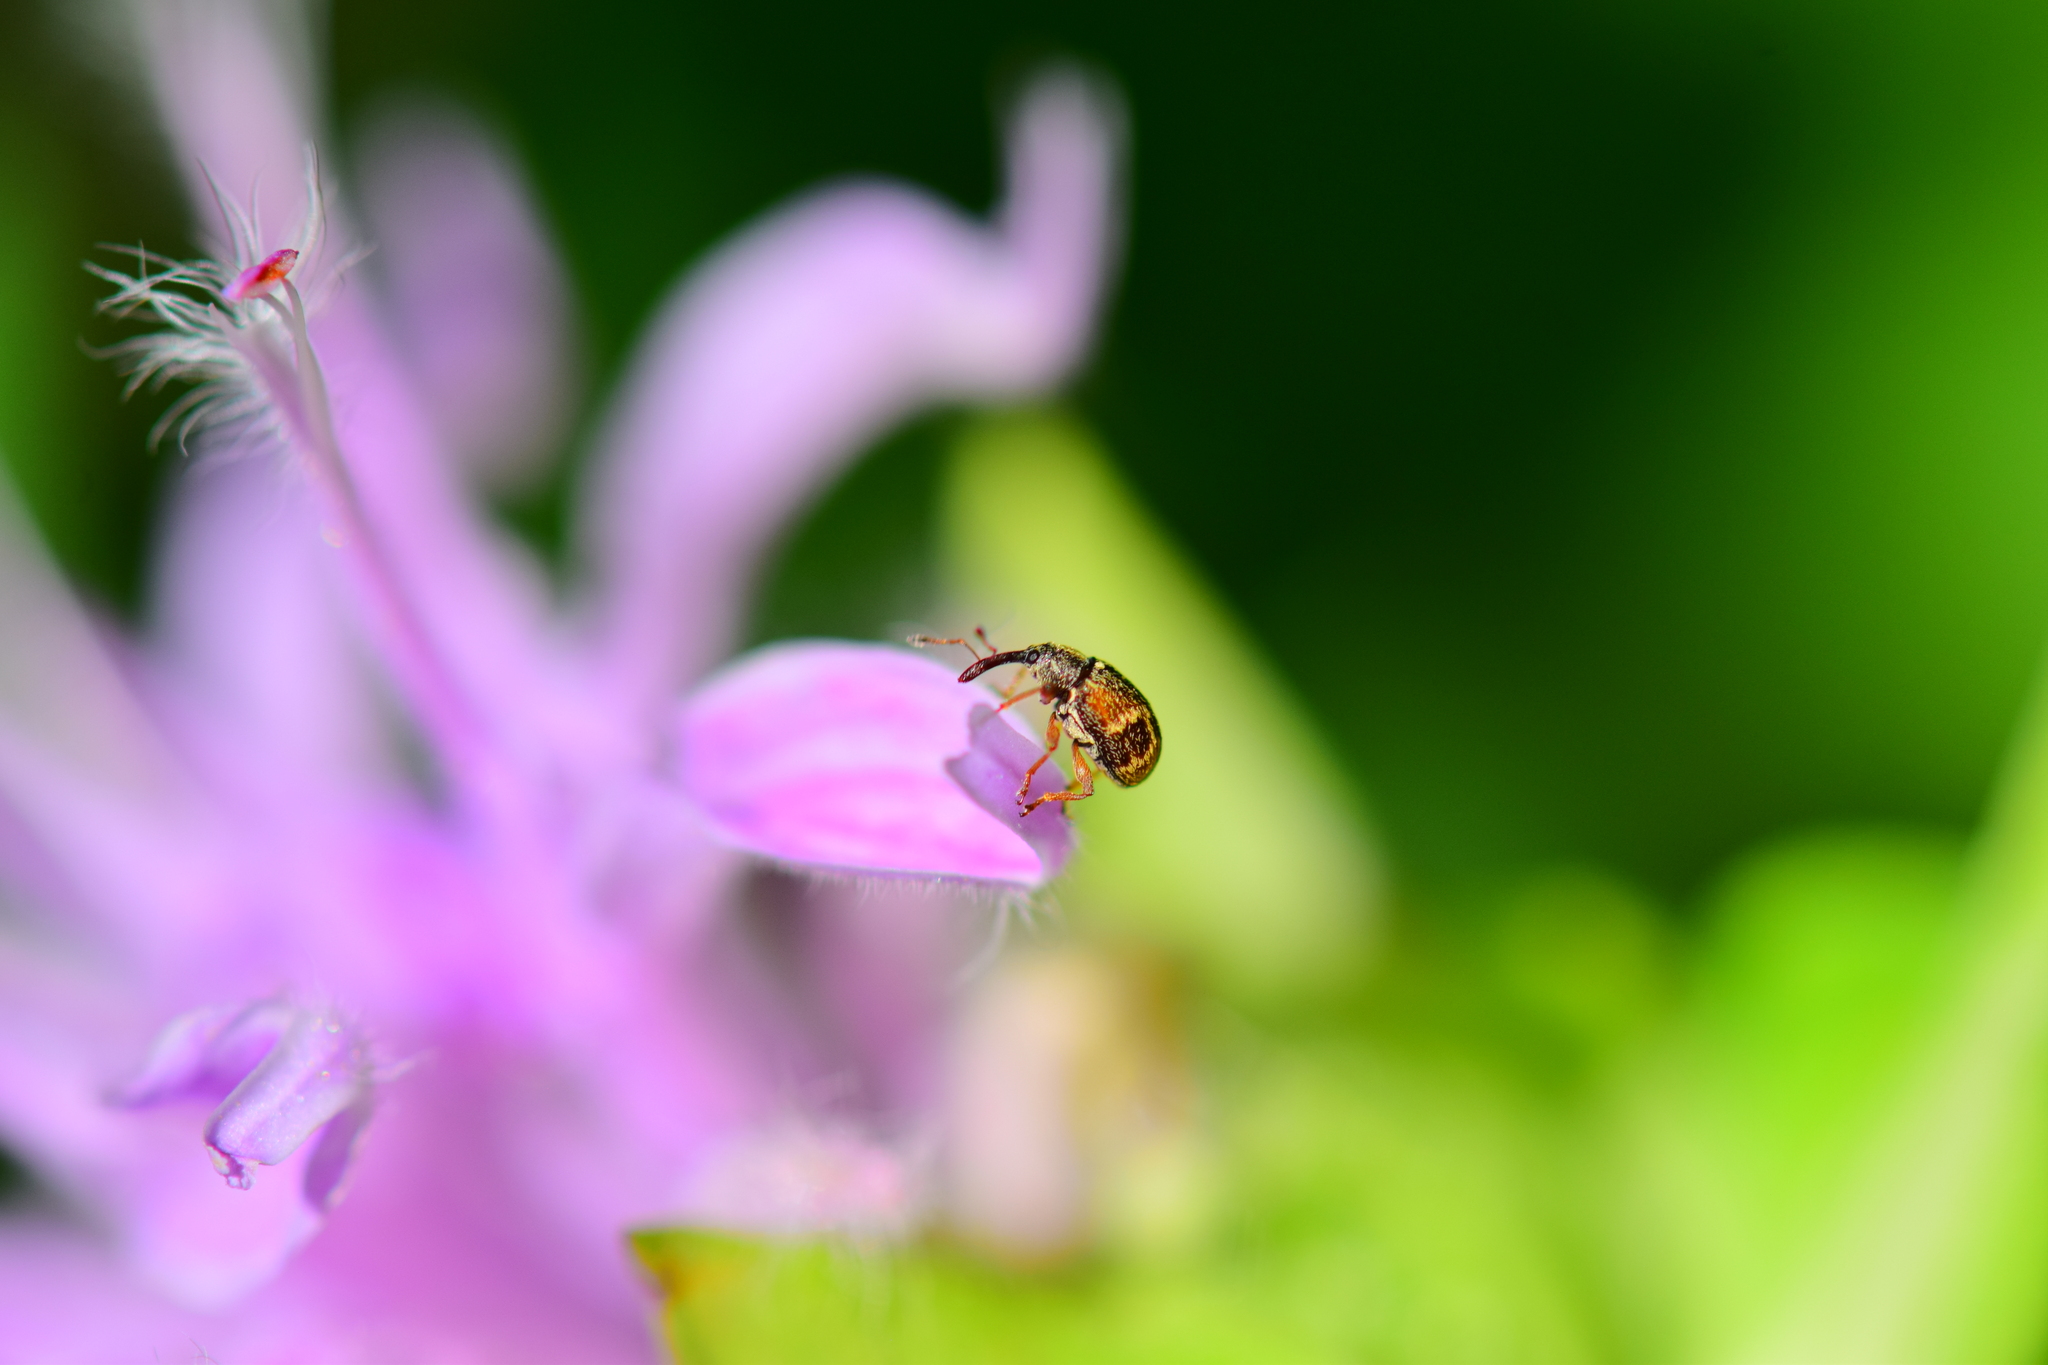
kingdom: Animalia
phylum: Arthropoda
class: Insecta
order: Coleoptera
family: Curculionidae
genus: Anthonomus
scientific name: Anthonomus signatus
